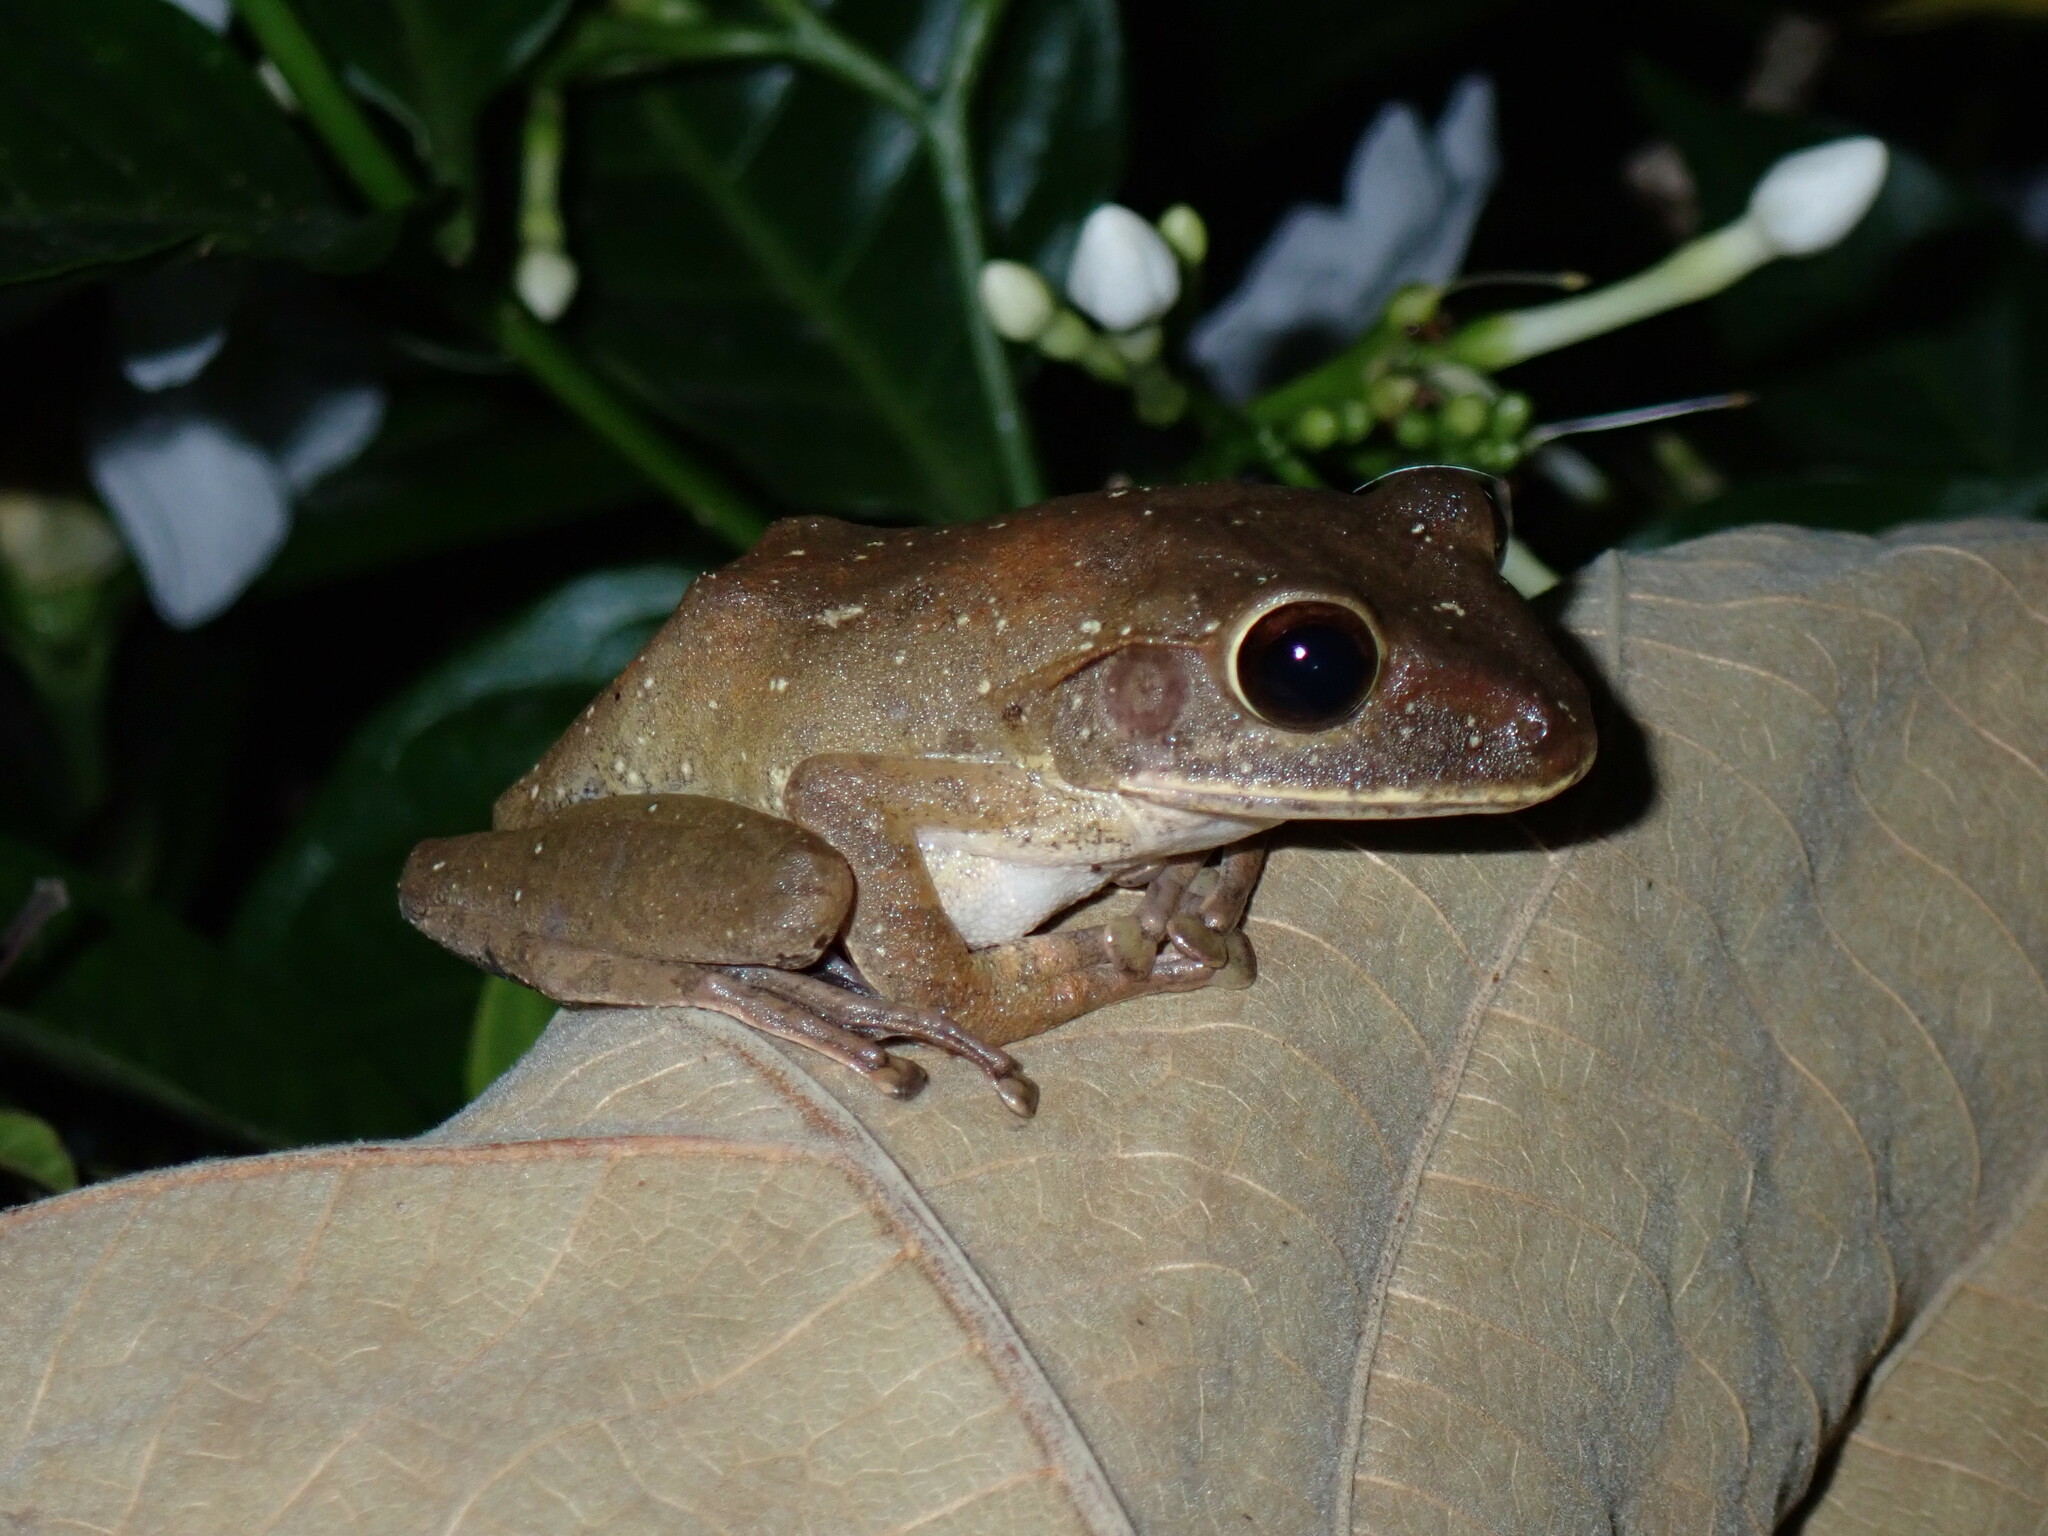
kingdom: Animalia
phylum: Chordata
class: Amphibia
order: Anura
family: Rhacophoridae
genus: Polypedates
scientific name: Polypedates megacephalus
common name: Hong kong whipping frog
